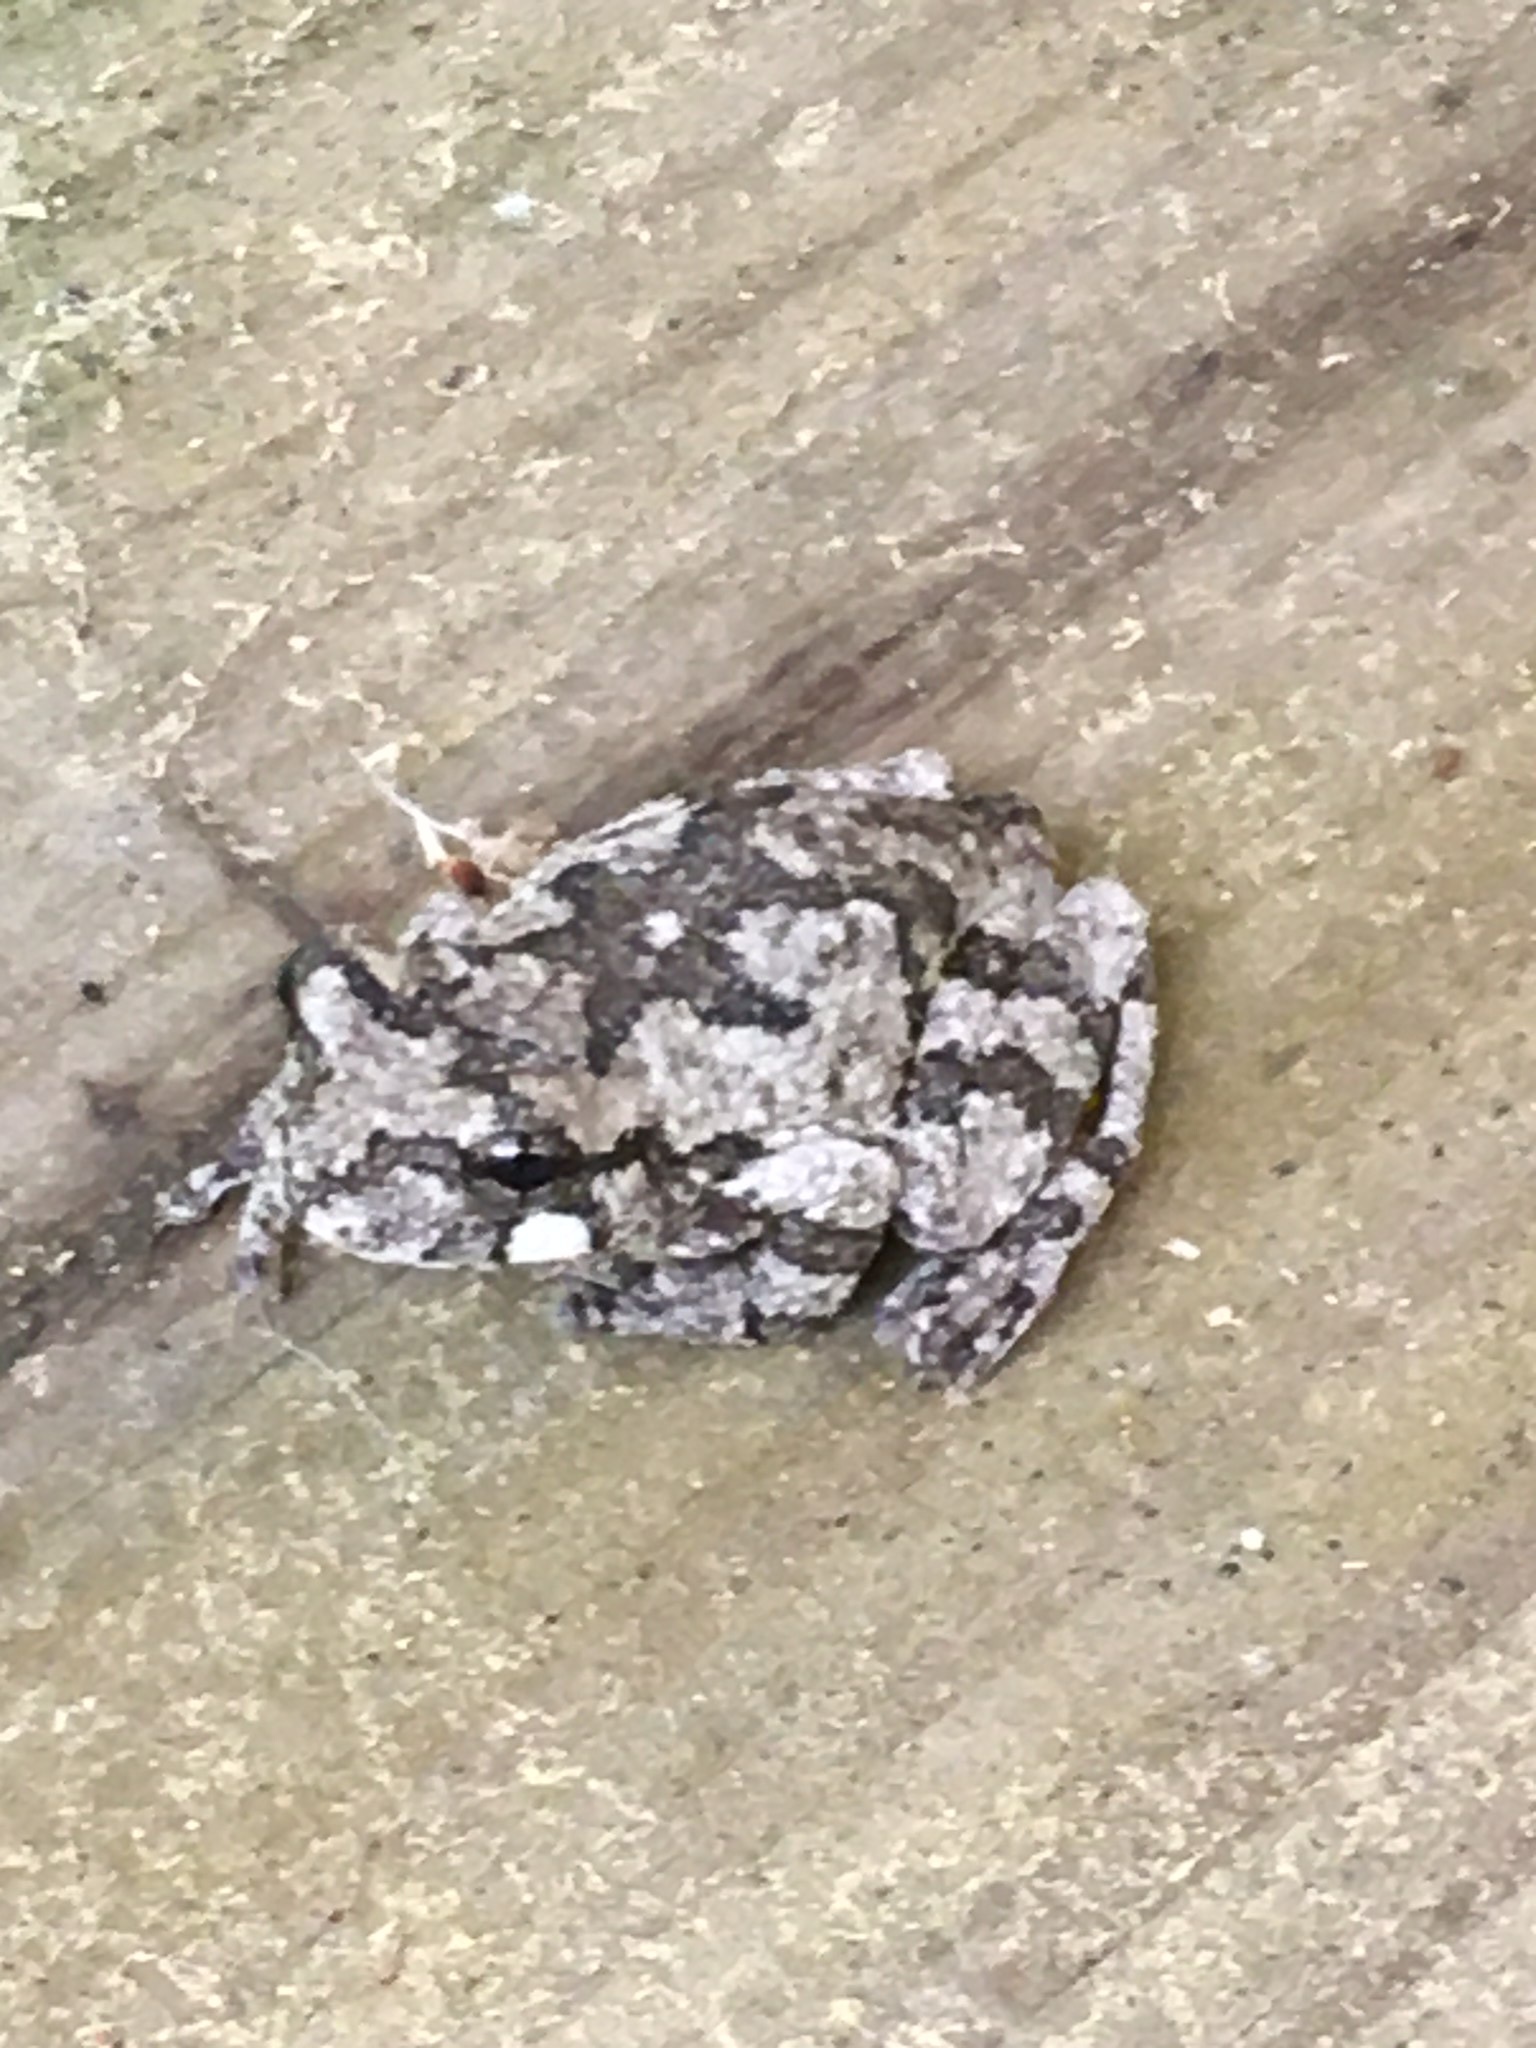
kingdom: Animalia
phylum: Chordata
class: Amphibia
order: Anura
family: Hylidae
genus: Dryophytes
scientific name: Dryophytes chrysoscelis
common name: Cope's gray treefrog
